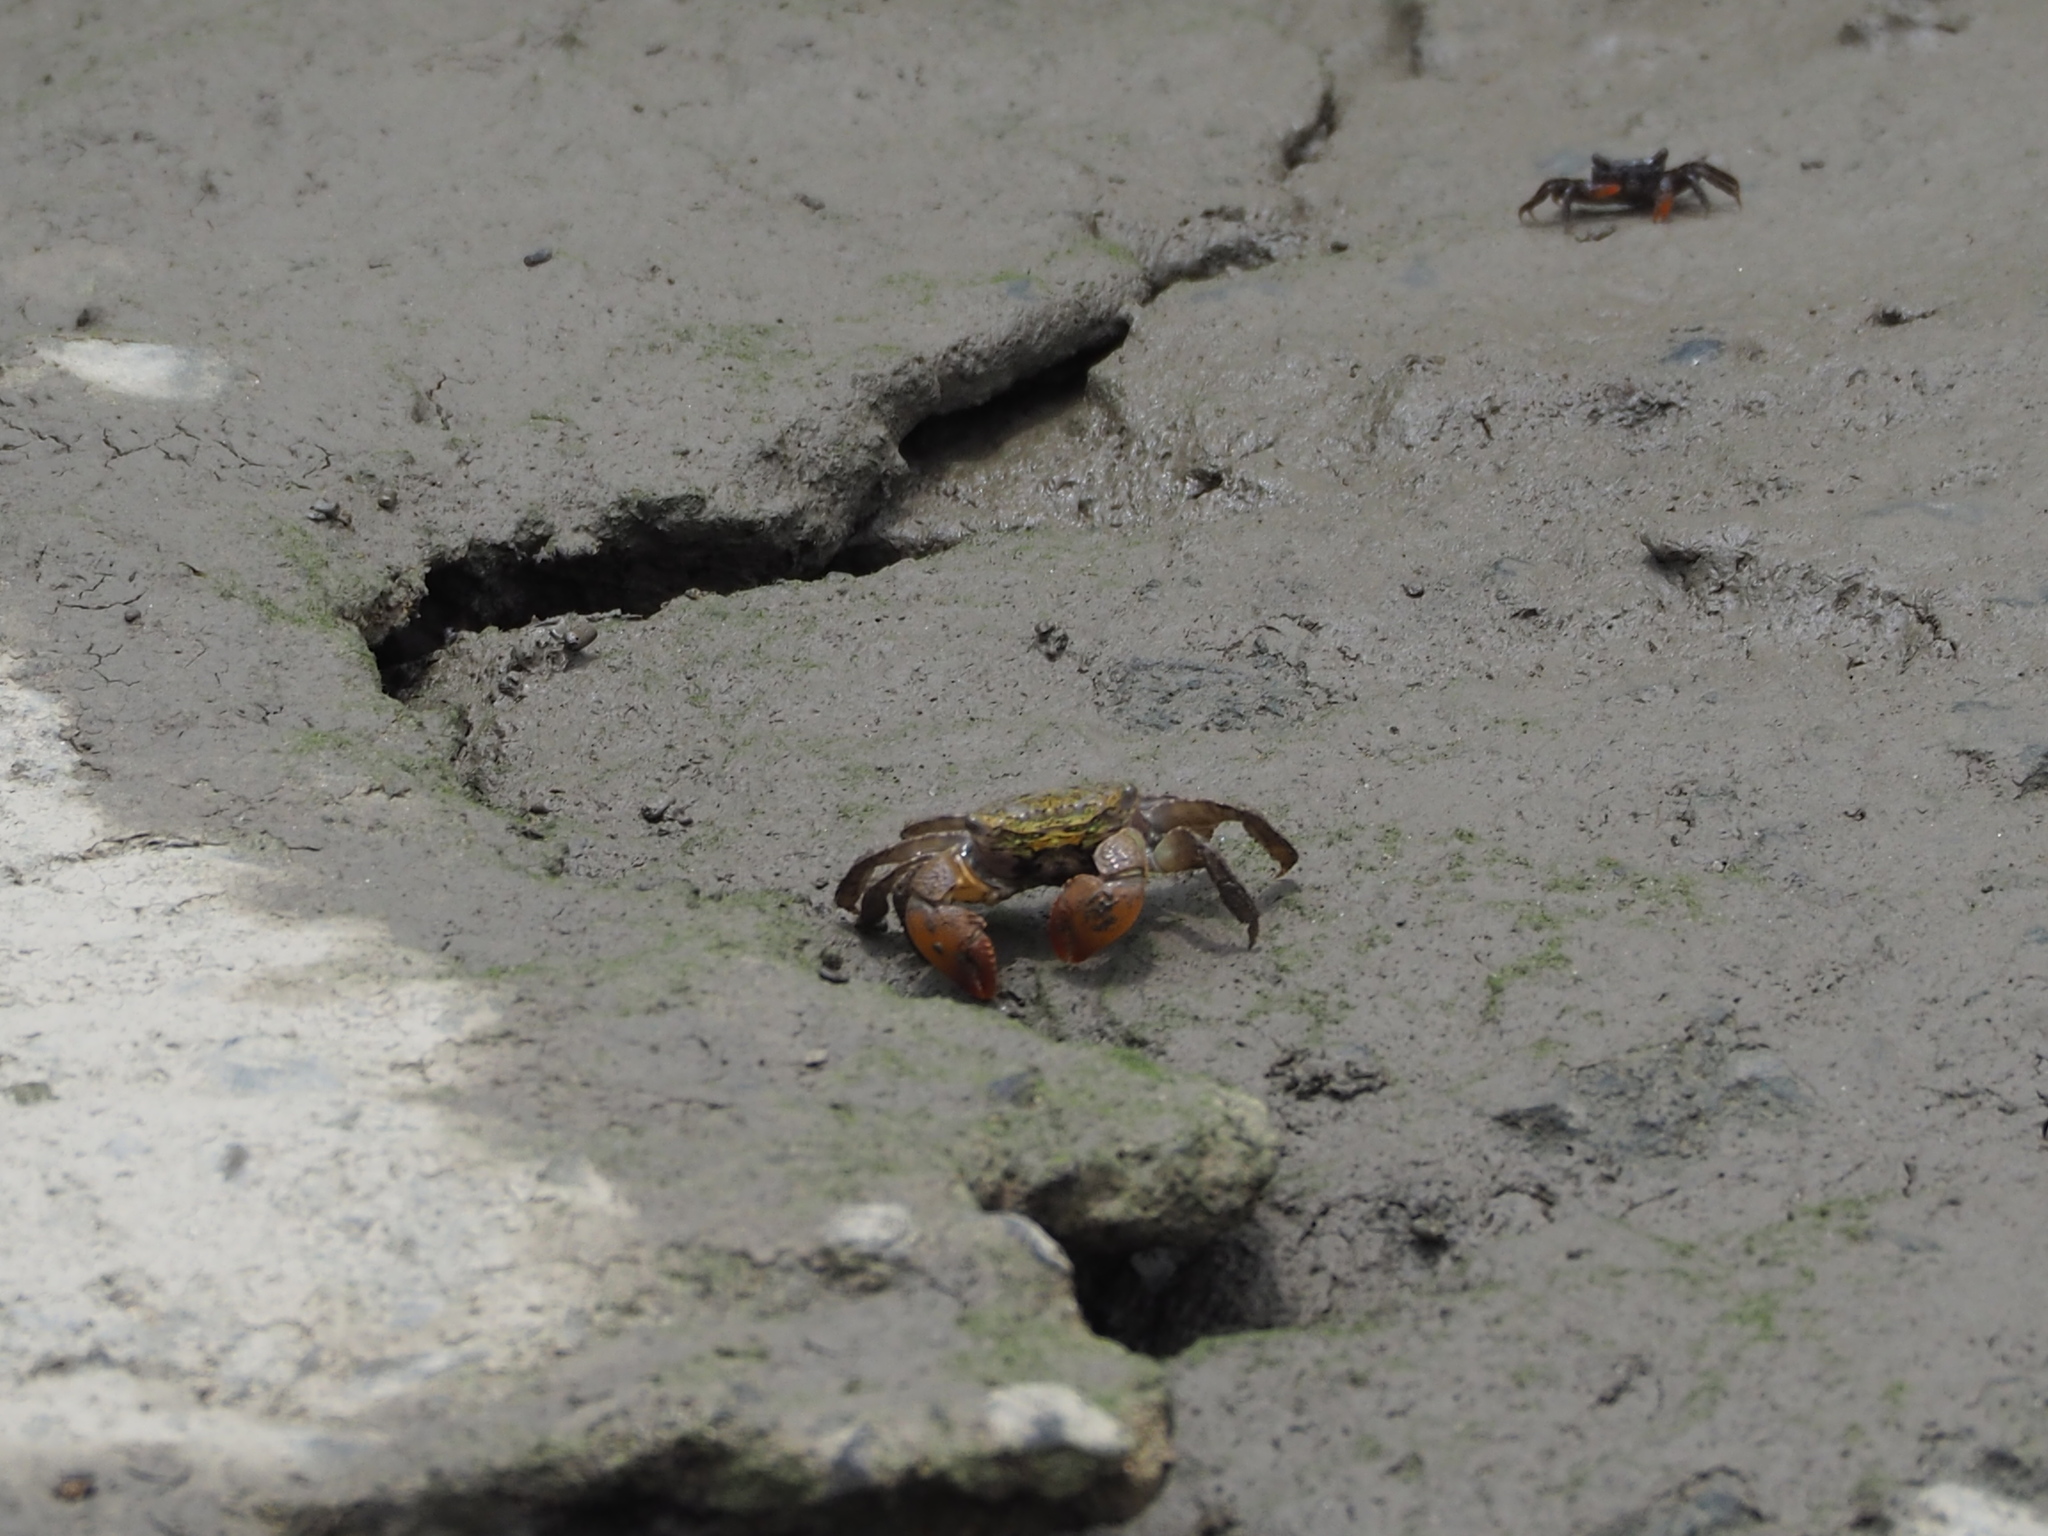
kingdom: Animalia
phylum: Arthropoda
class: Malacostraca
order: Decapoda
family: Sesarmidae
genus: Parasesarma
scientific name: Parasesarma bidens
